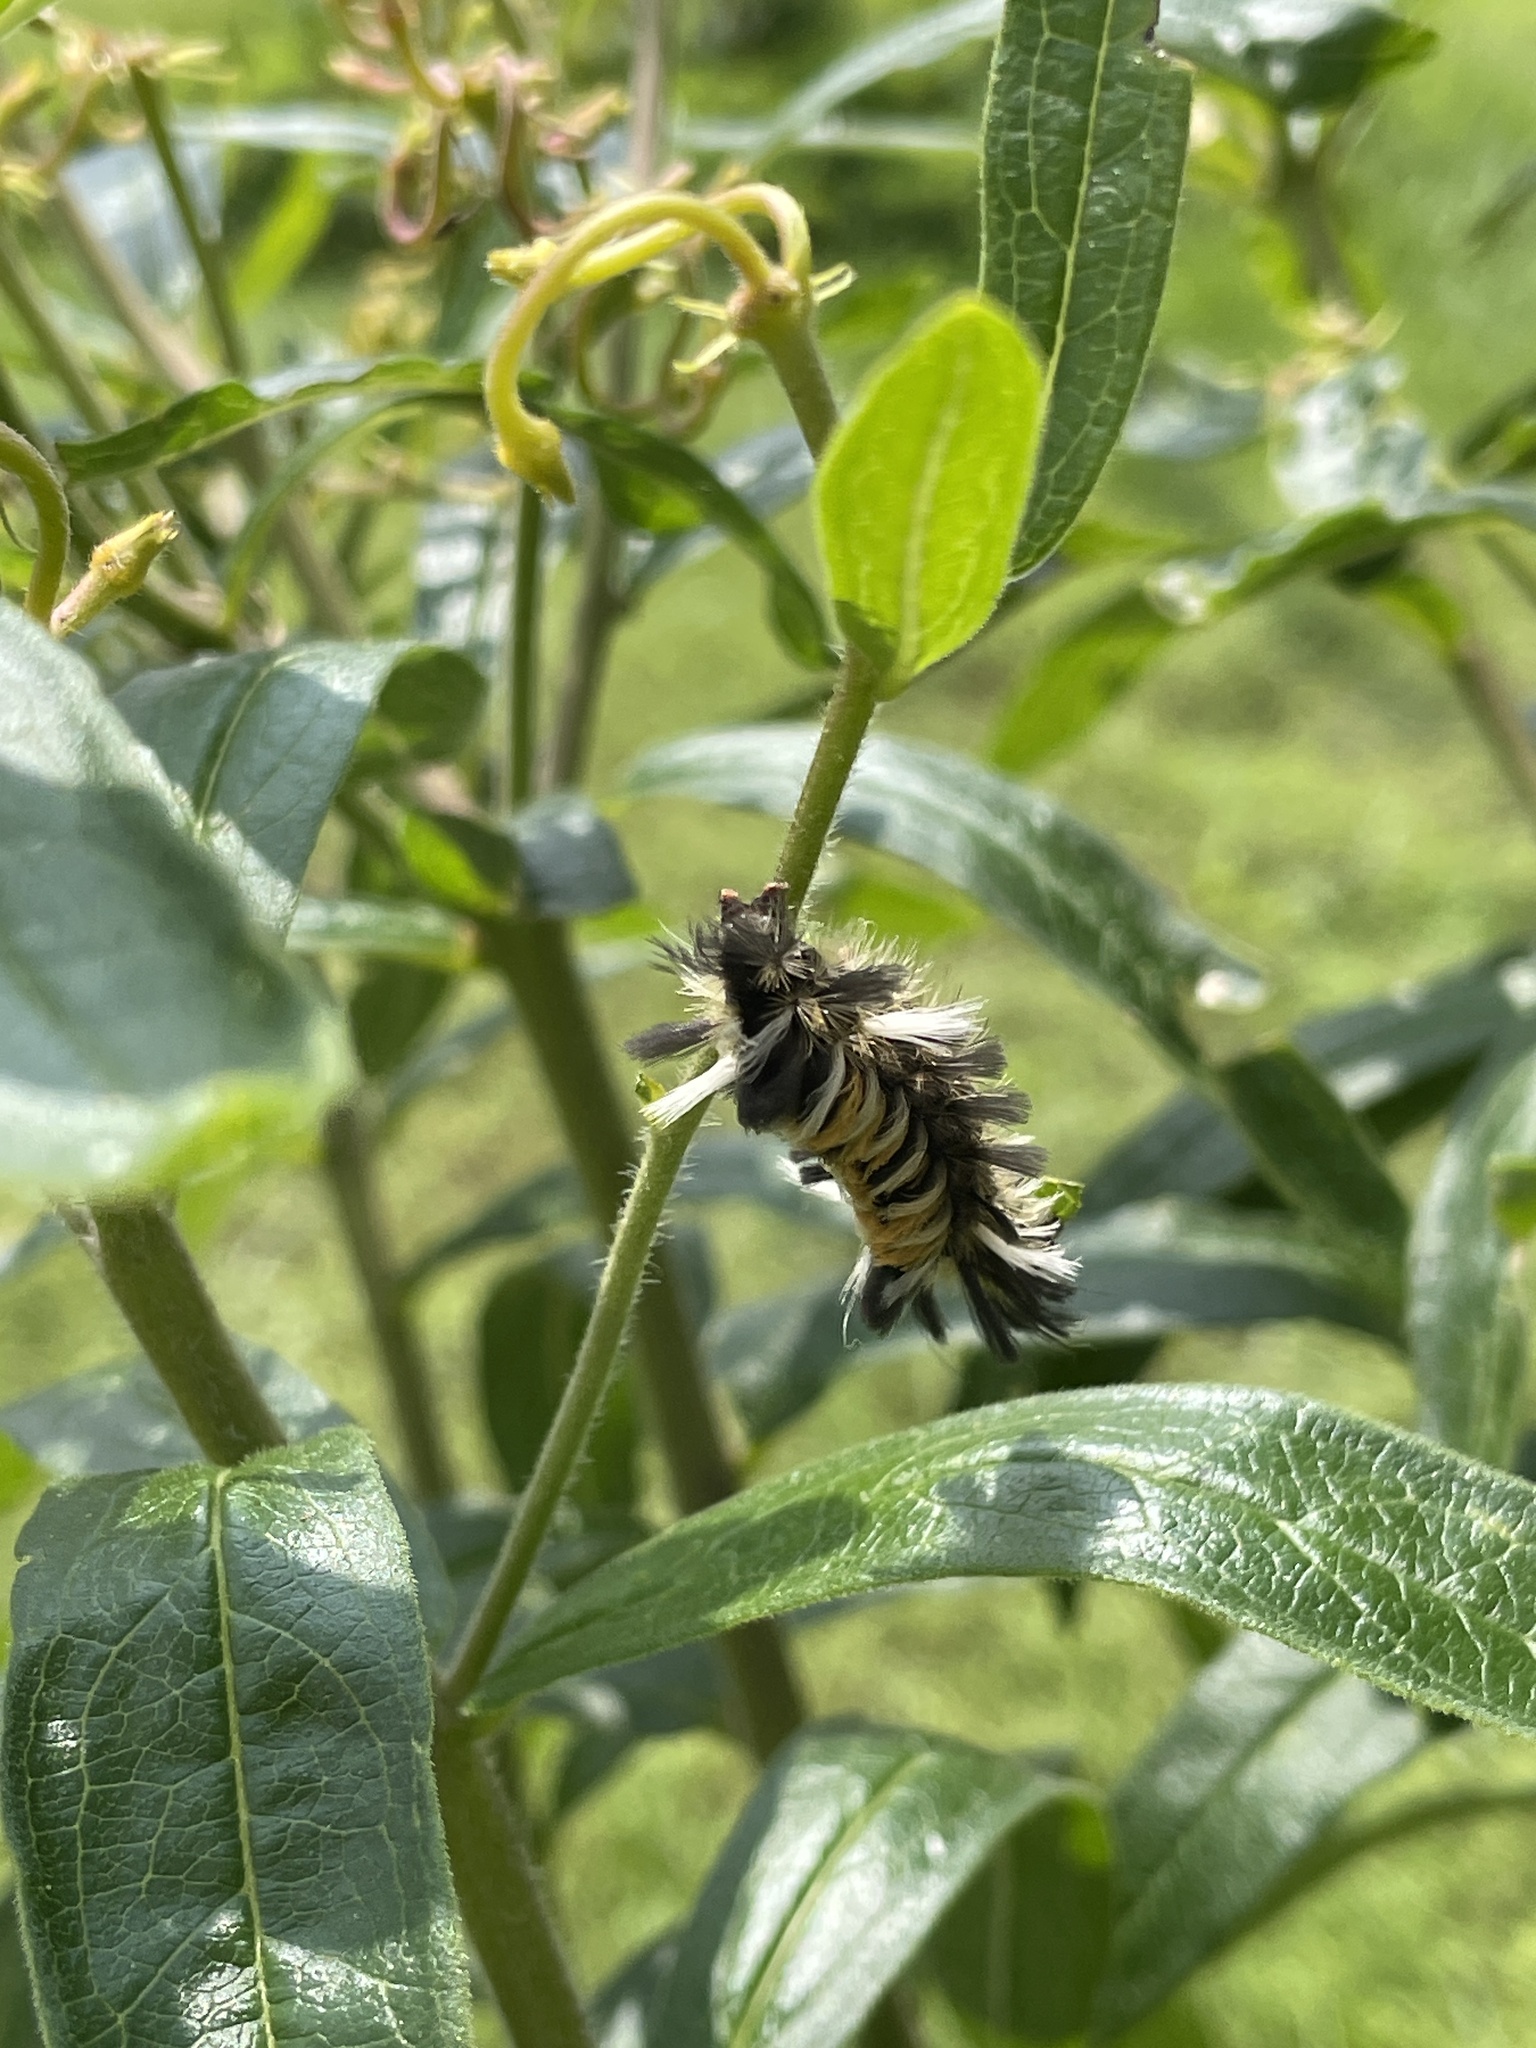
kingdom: Animalia
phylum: Arthropoda
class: Insecta
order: Lepidoptera
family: Erebidae
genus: Euchaetes
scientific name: Euchaetes egle
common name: Milkweed tussock moth
